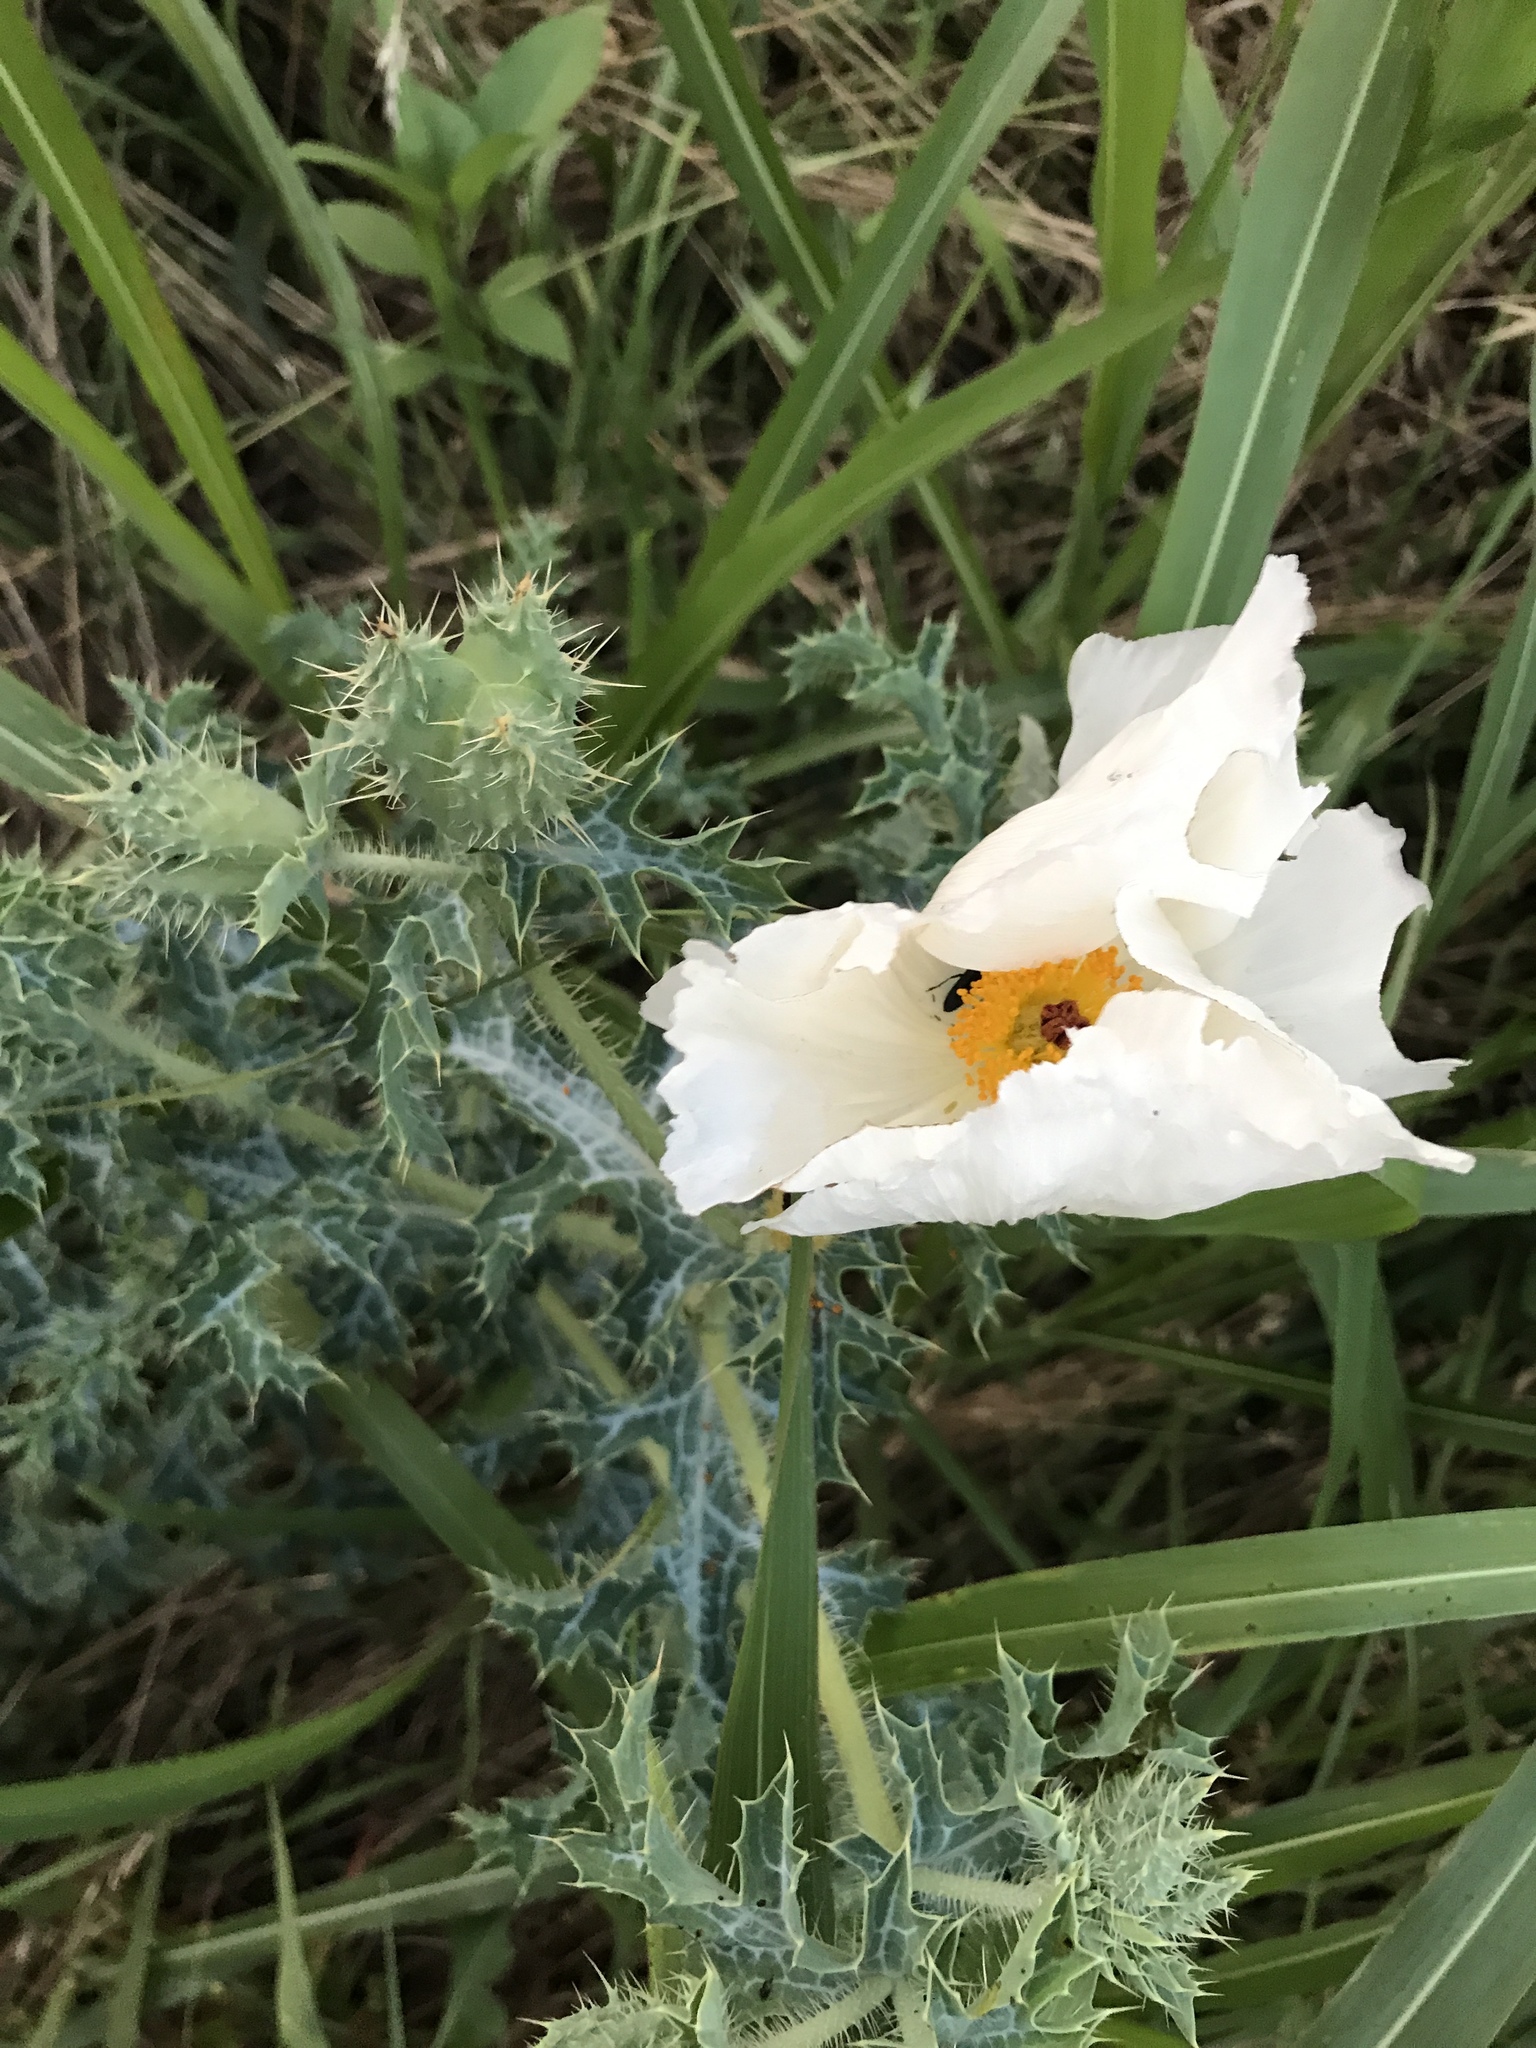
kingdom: Plantae
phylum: Tracheophyta
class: Magnoliopsida
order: Ranunculales
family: Papaveraceae
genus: Argemone
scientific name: Argemone albiflora
